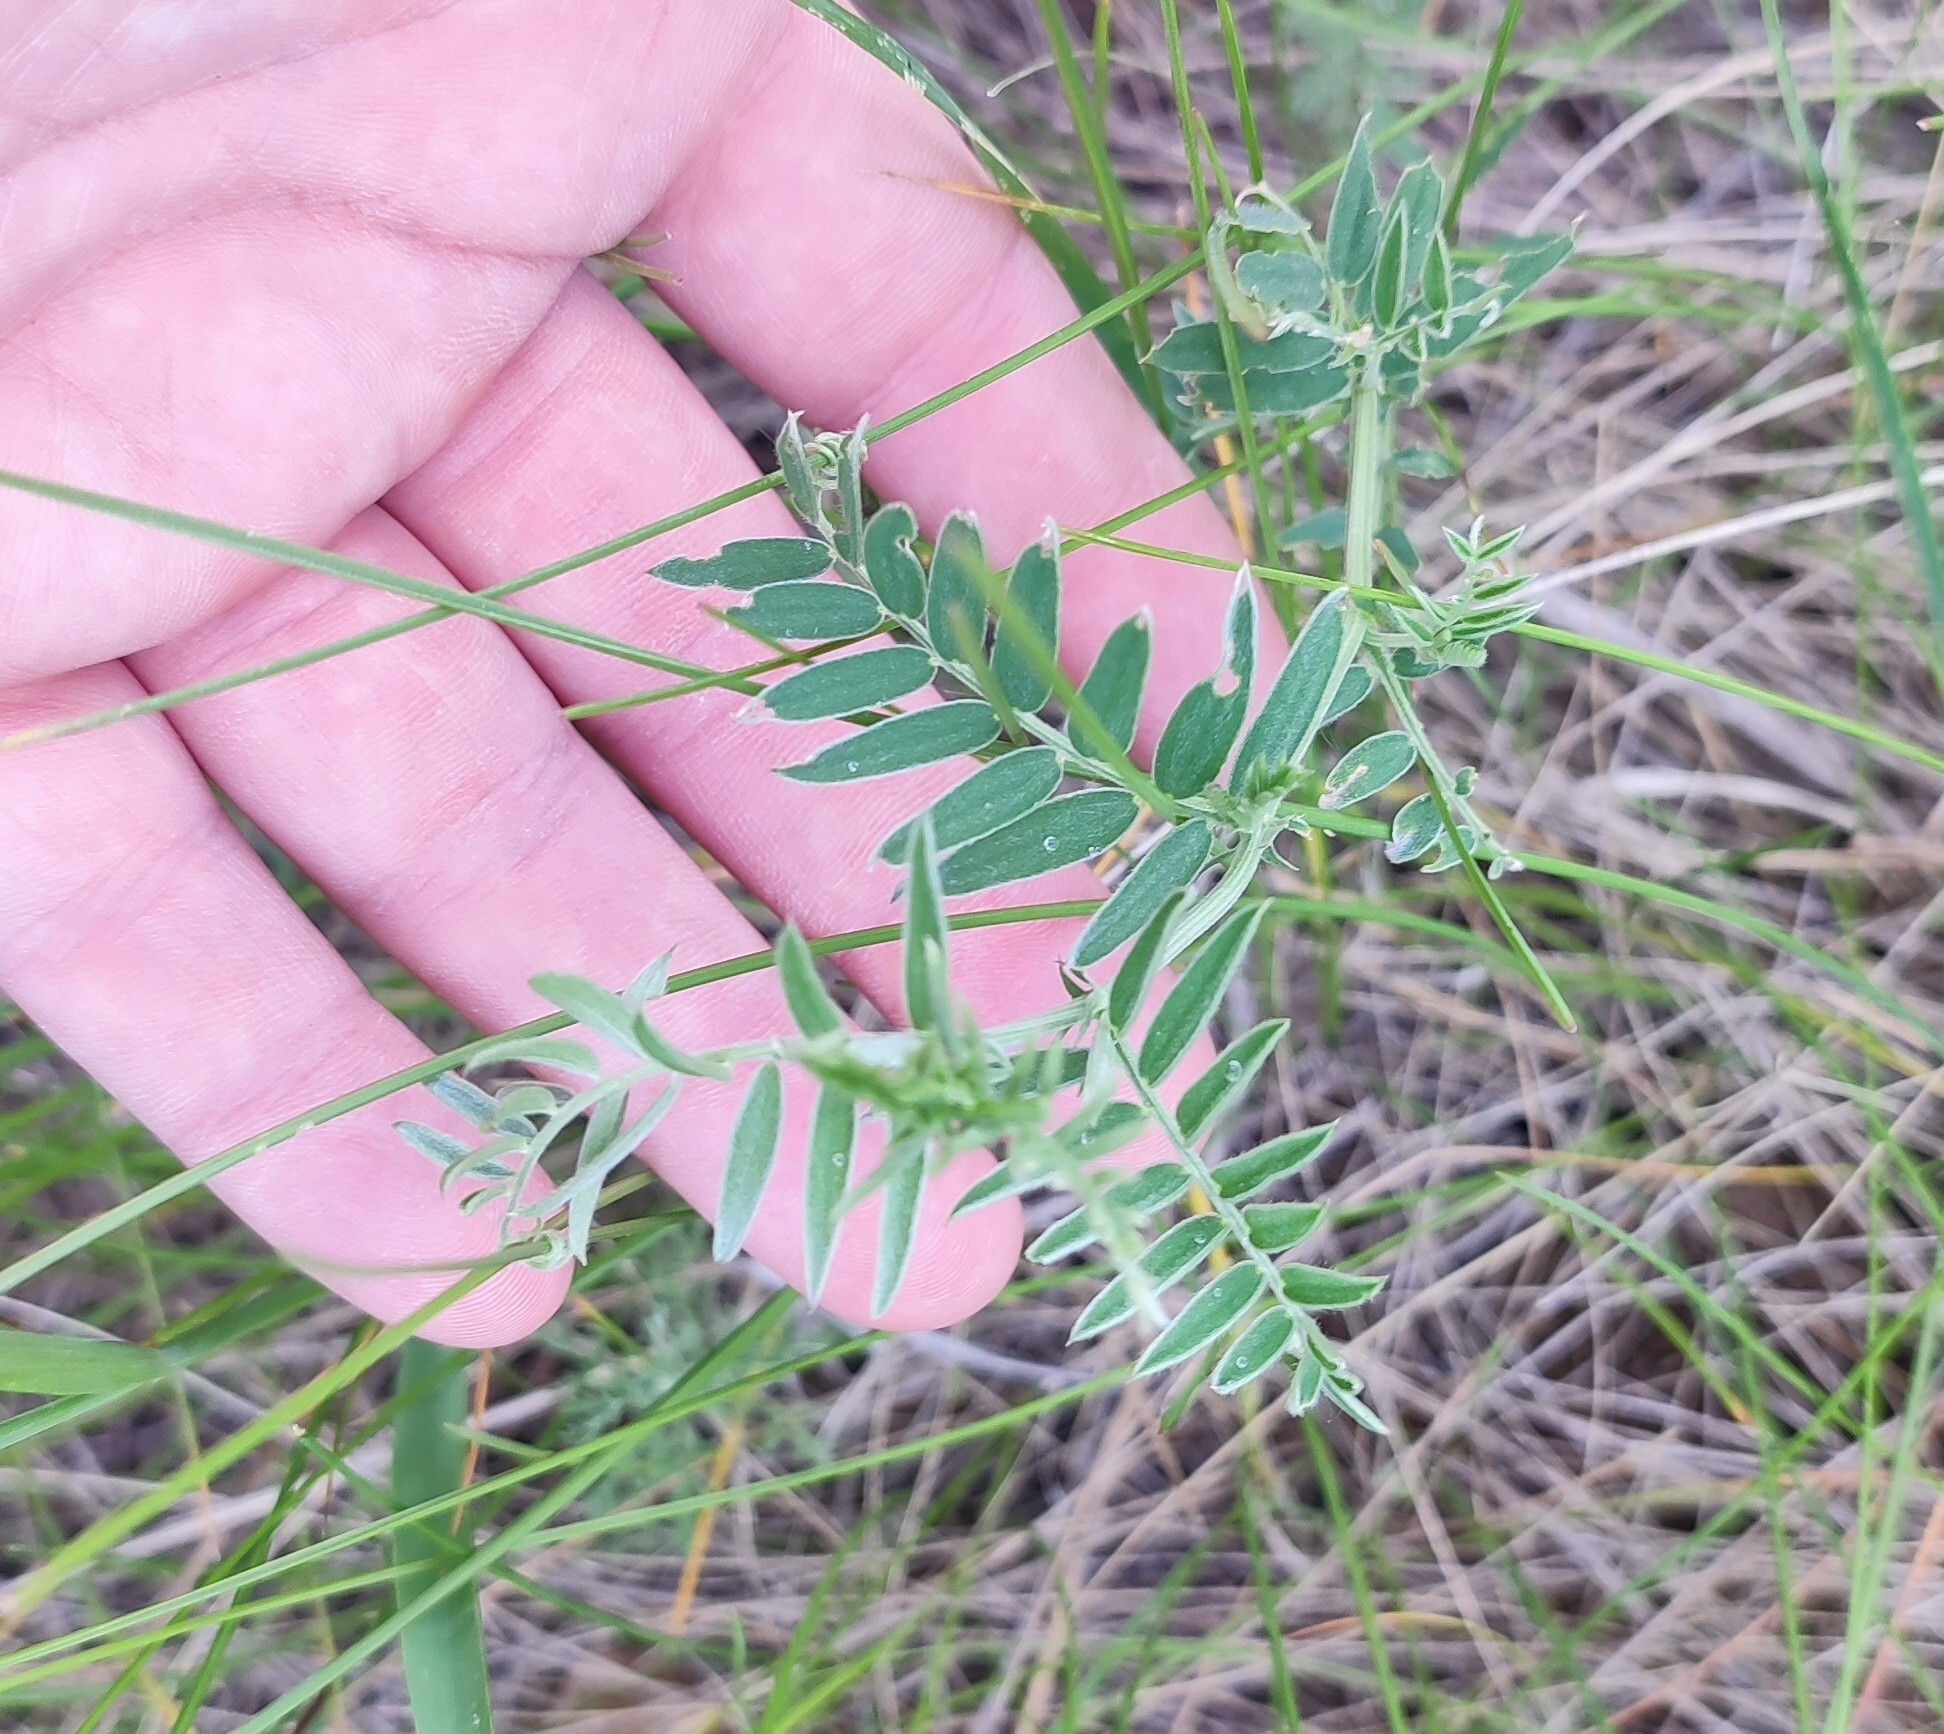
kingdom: Plantae
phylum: Tracheophyta
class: Magnoliopsida
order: Fabales
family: Fabaceae
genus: Vicia
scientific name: Vicia cracca
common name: Bird vetch
